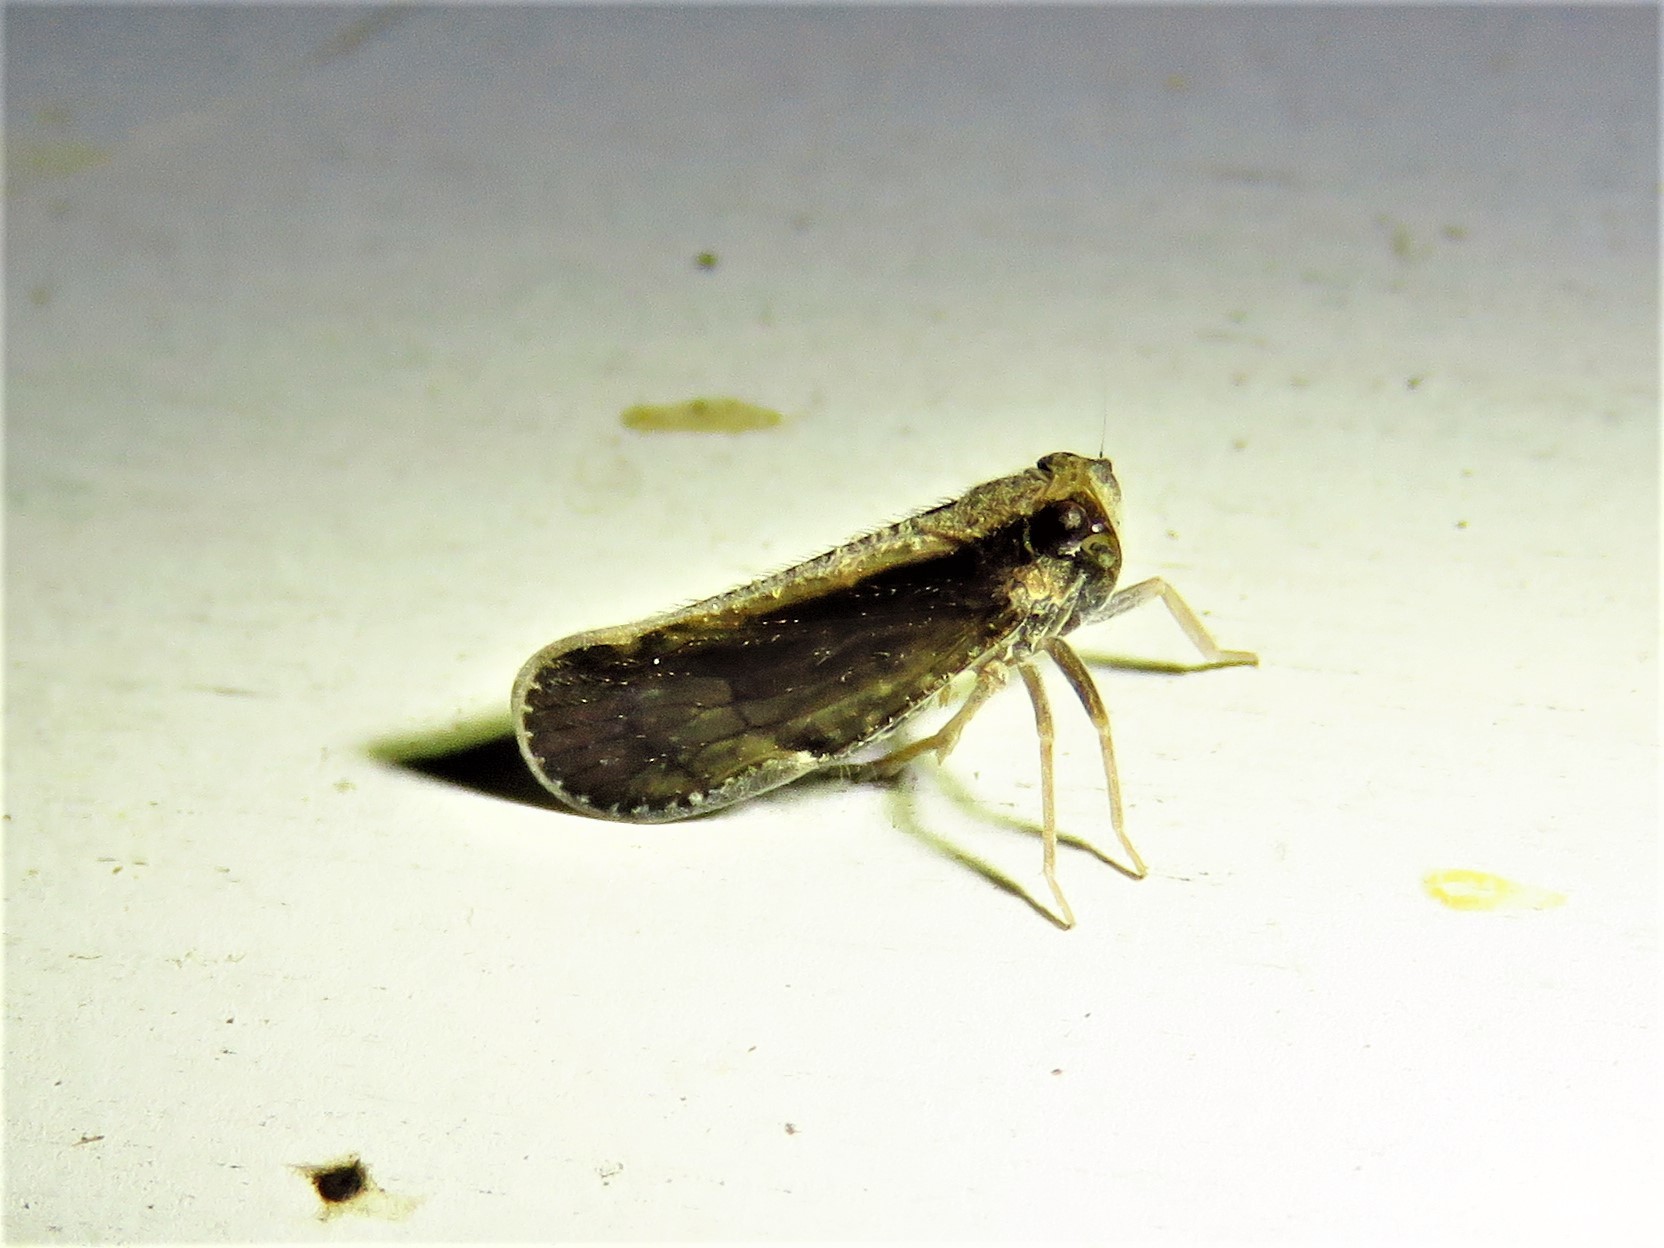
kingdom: Animalia
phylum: Arthropoda
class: Insecta
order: Hemiptera
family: Cixiidae
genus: Pintalia
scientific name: Pintalia delicata
